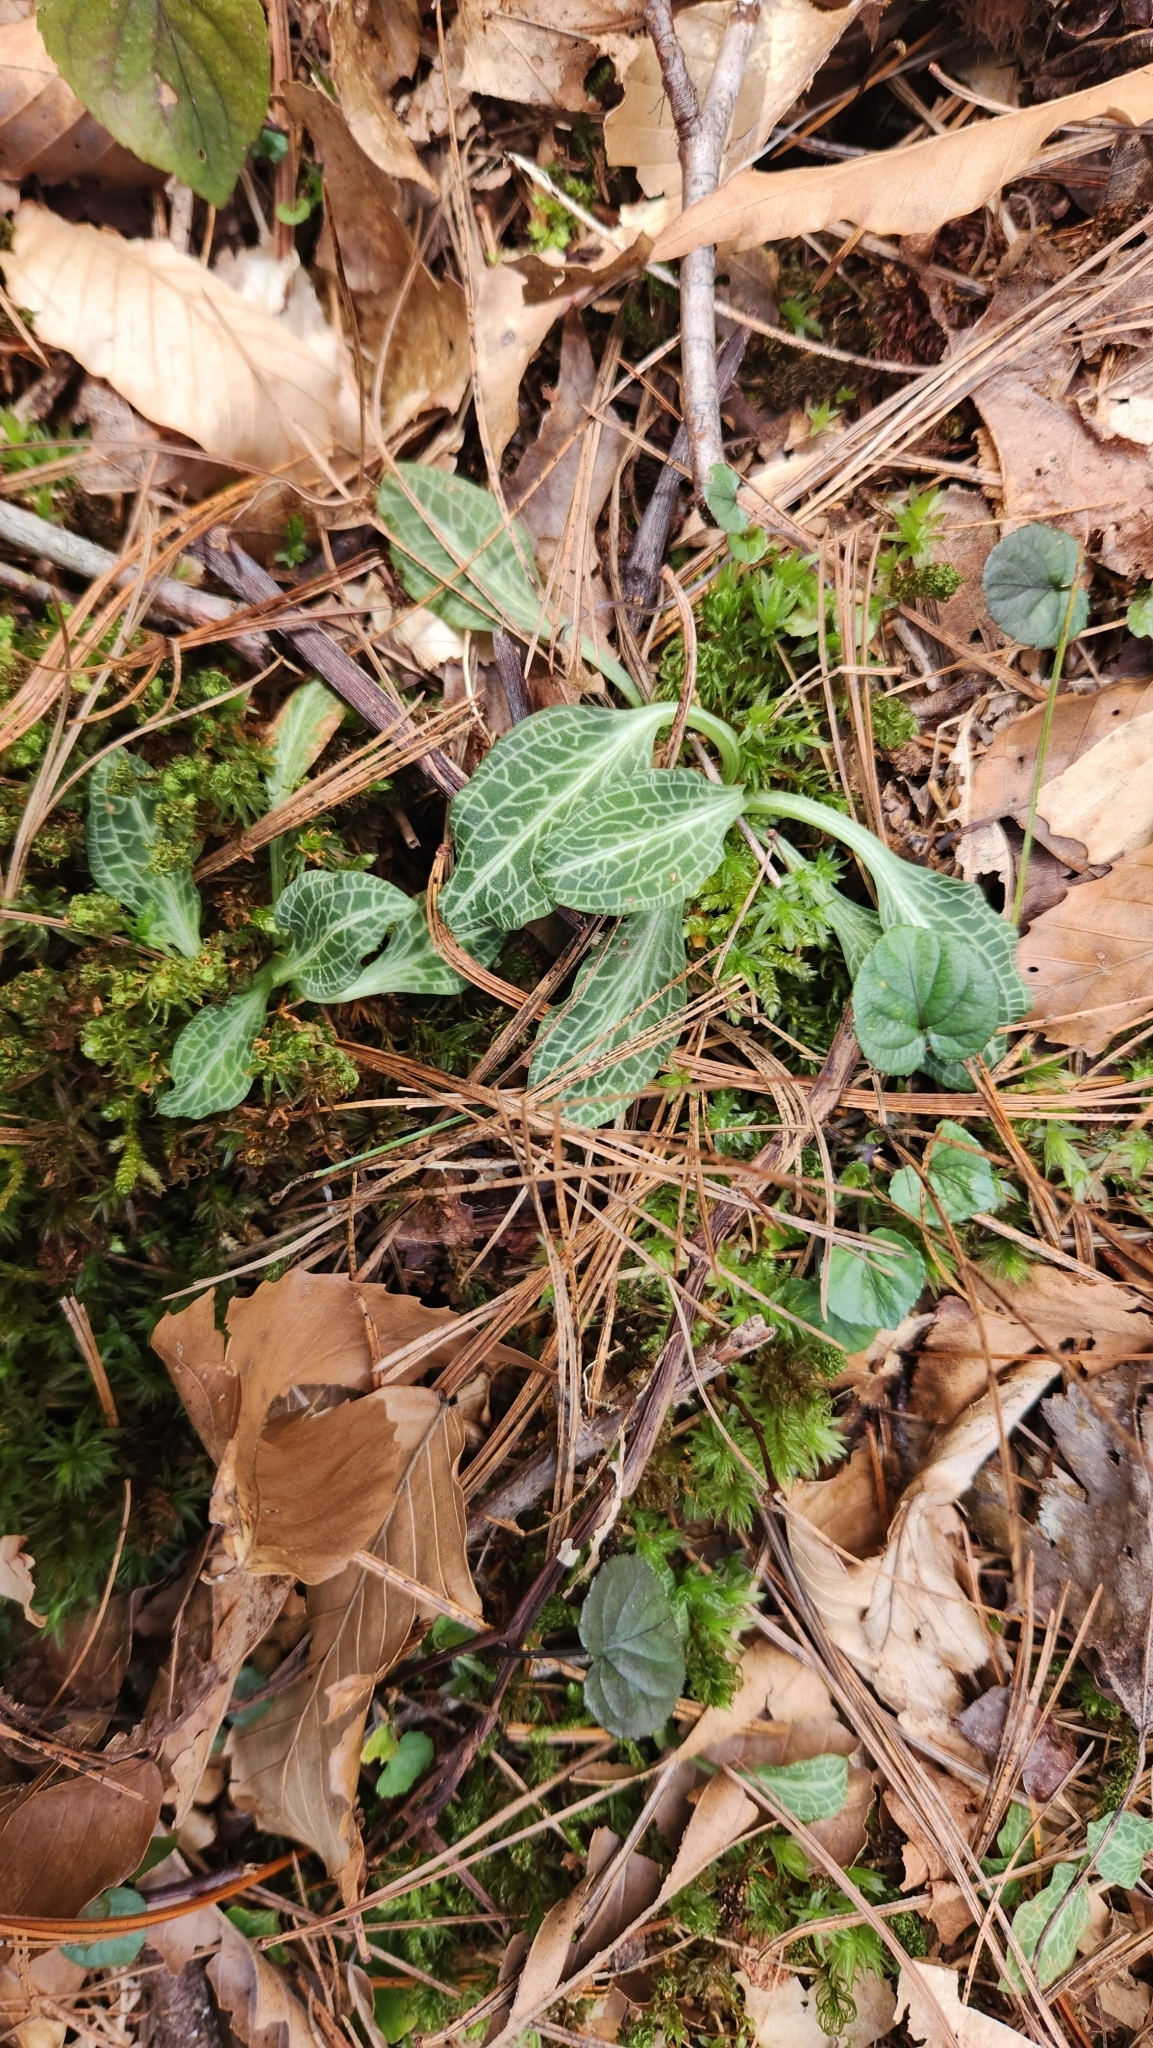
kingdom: Plantae
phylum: Tracheophyta
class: Liliopsida
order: Asparagales
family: Orchidaceae
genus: Goodyera
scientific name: Goodyera pubescens
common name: Downy rattlesnake-plantain
